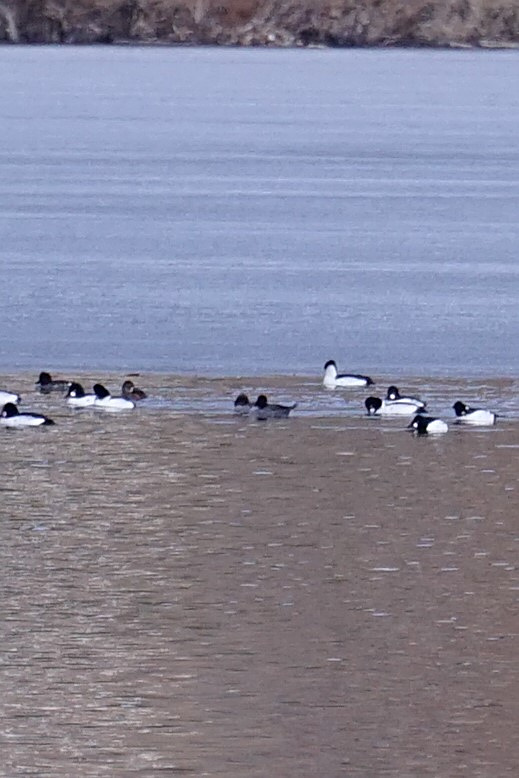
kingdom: Animalia
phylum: Chordata
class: Aves
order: Anseriformes
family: Anatidae
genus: Bucephala
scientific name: Bucephala clangula
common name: Common goldeneye
